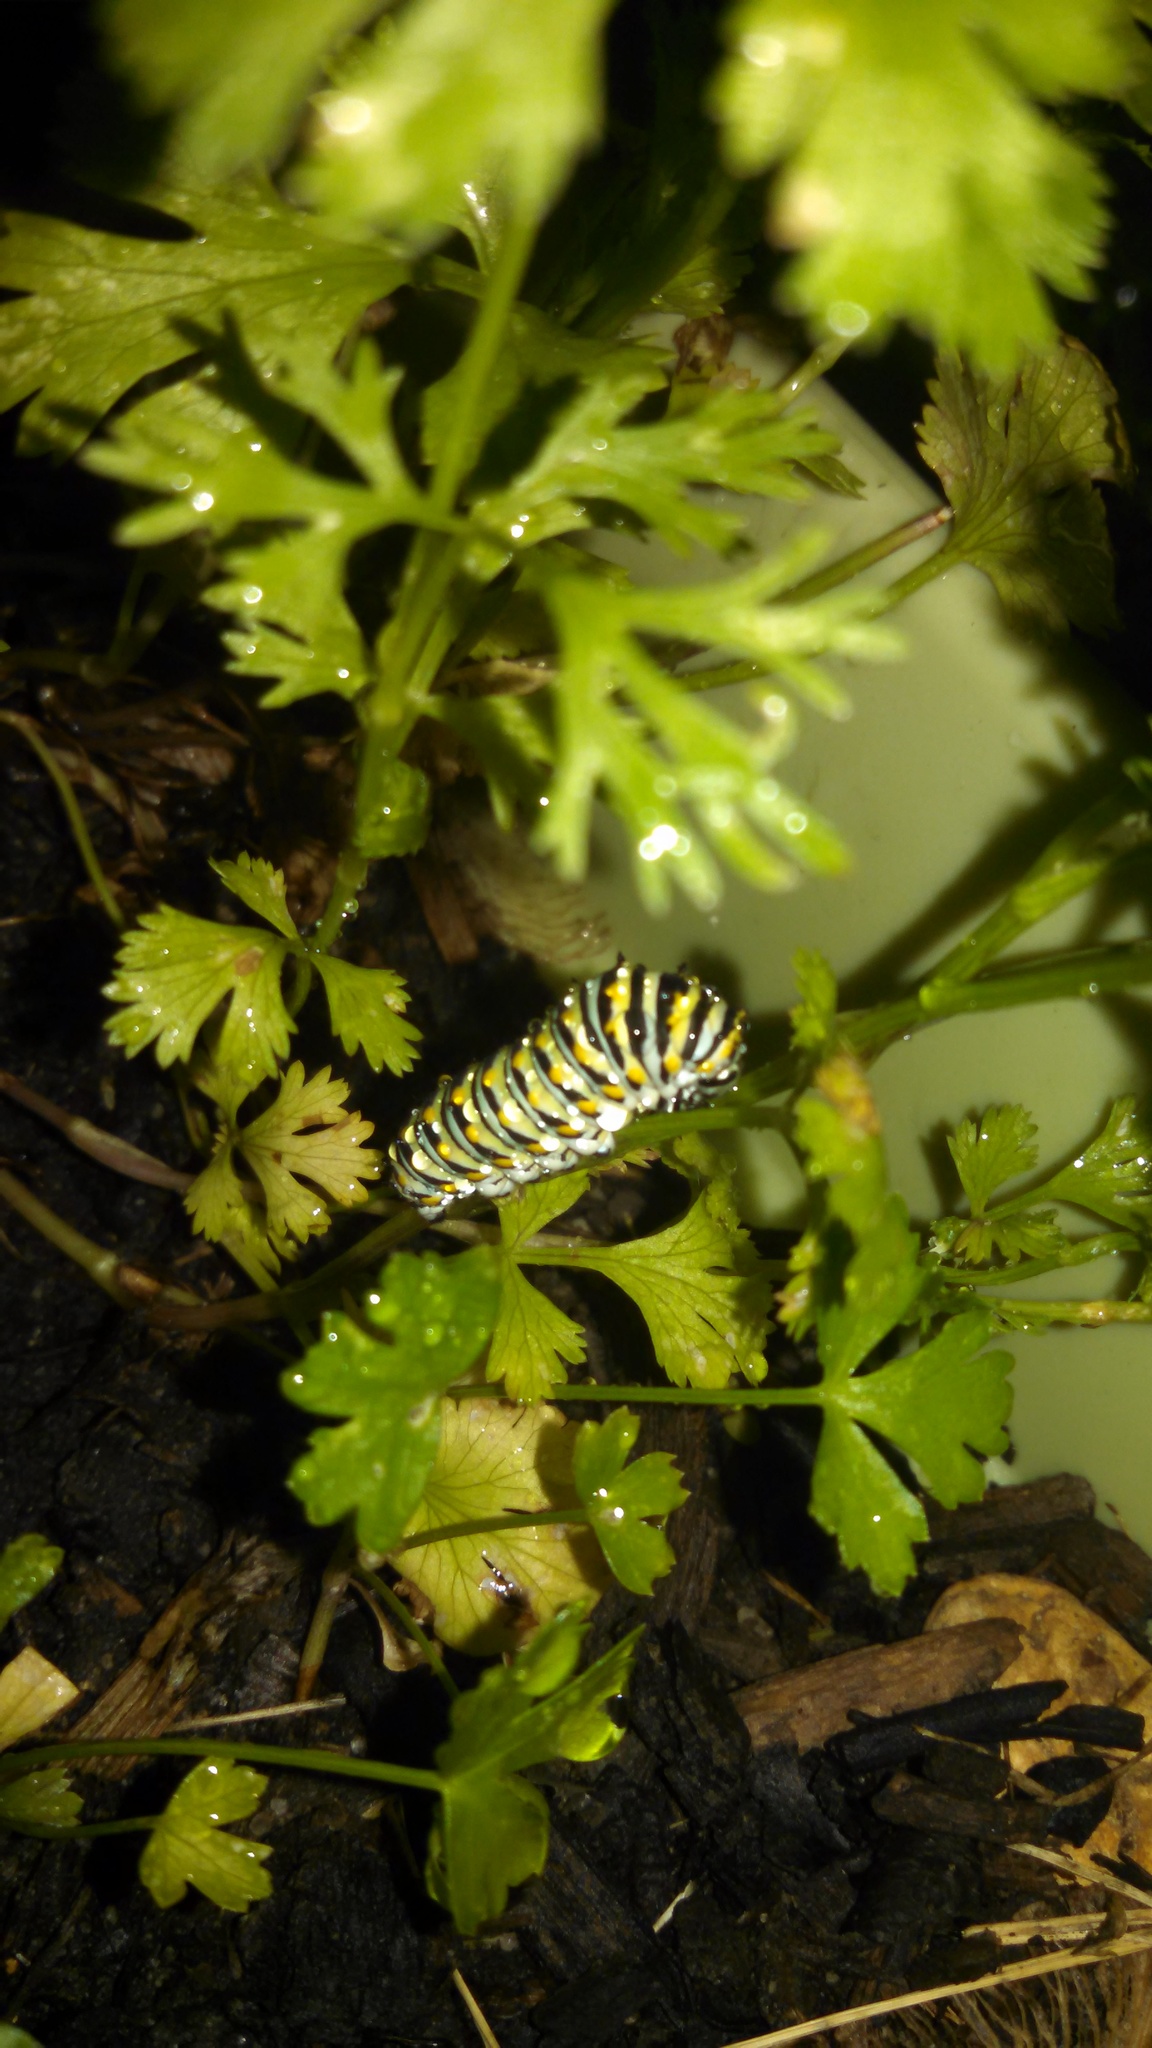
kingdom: Animalia
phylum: Arthropoda
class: Insecta
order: Lepidoptera
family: Papilionidae
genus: Papilio
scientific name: Papilio polyxenes
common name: Black swallowtail
